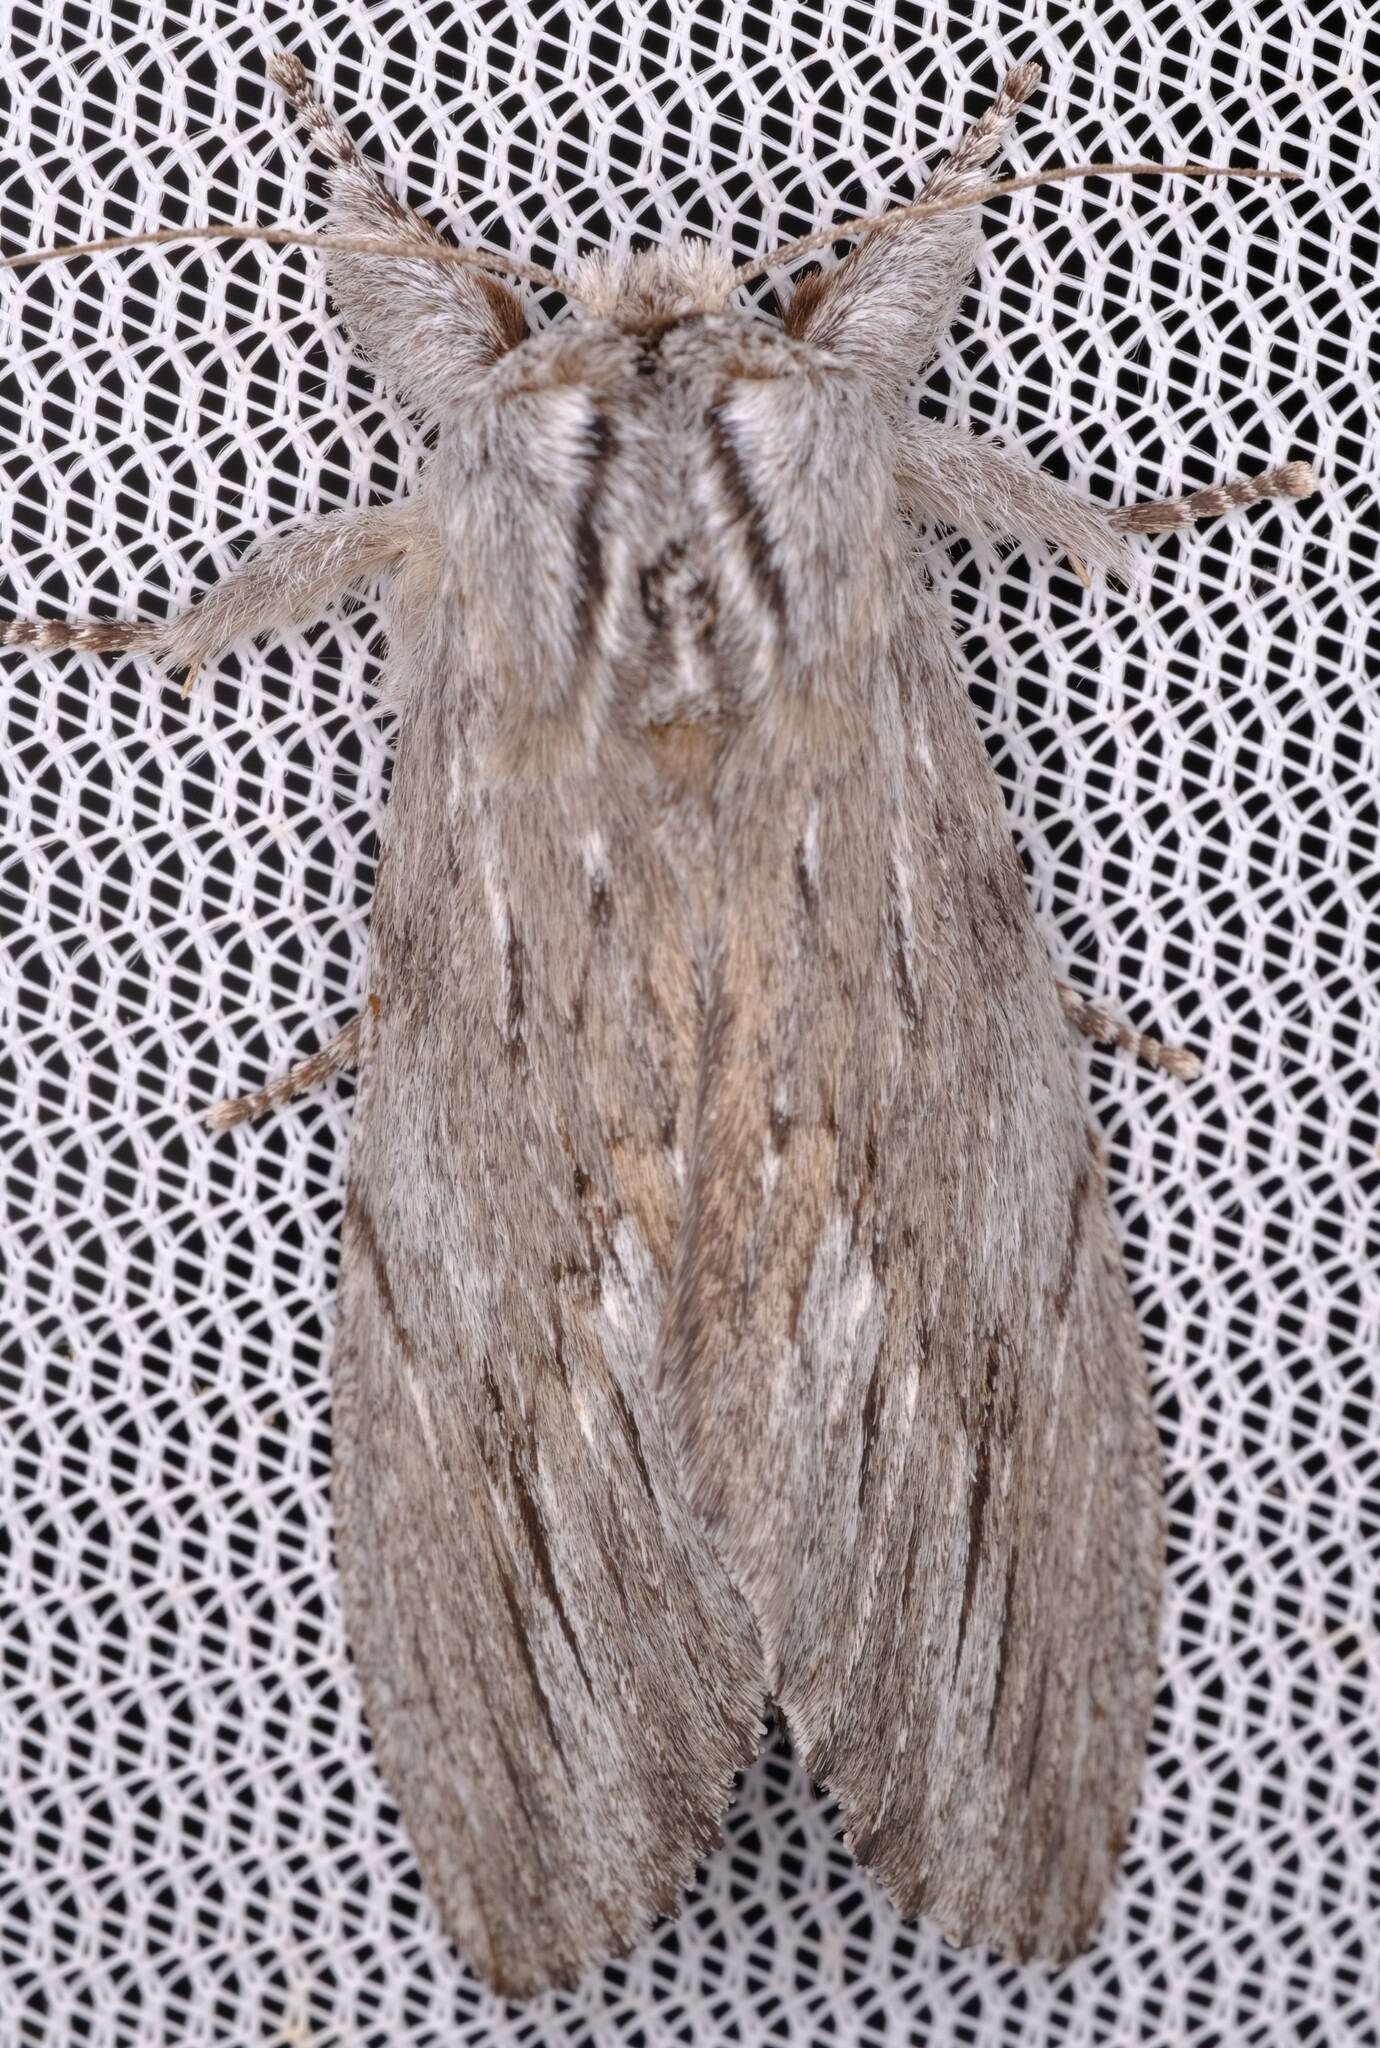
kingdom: Animalia
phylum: Arthropoda
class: Insecta
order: Lepidoptera
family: Notodontidae
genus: Destolmia
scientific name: Destolmia lineata
